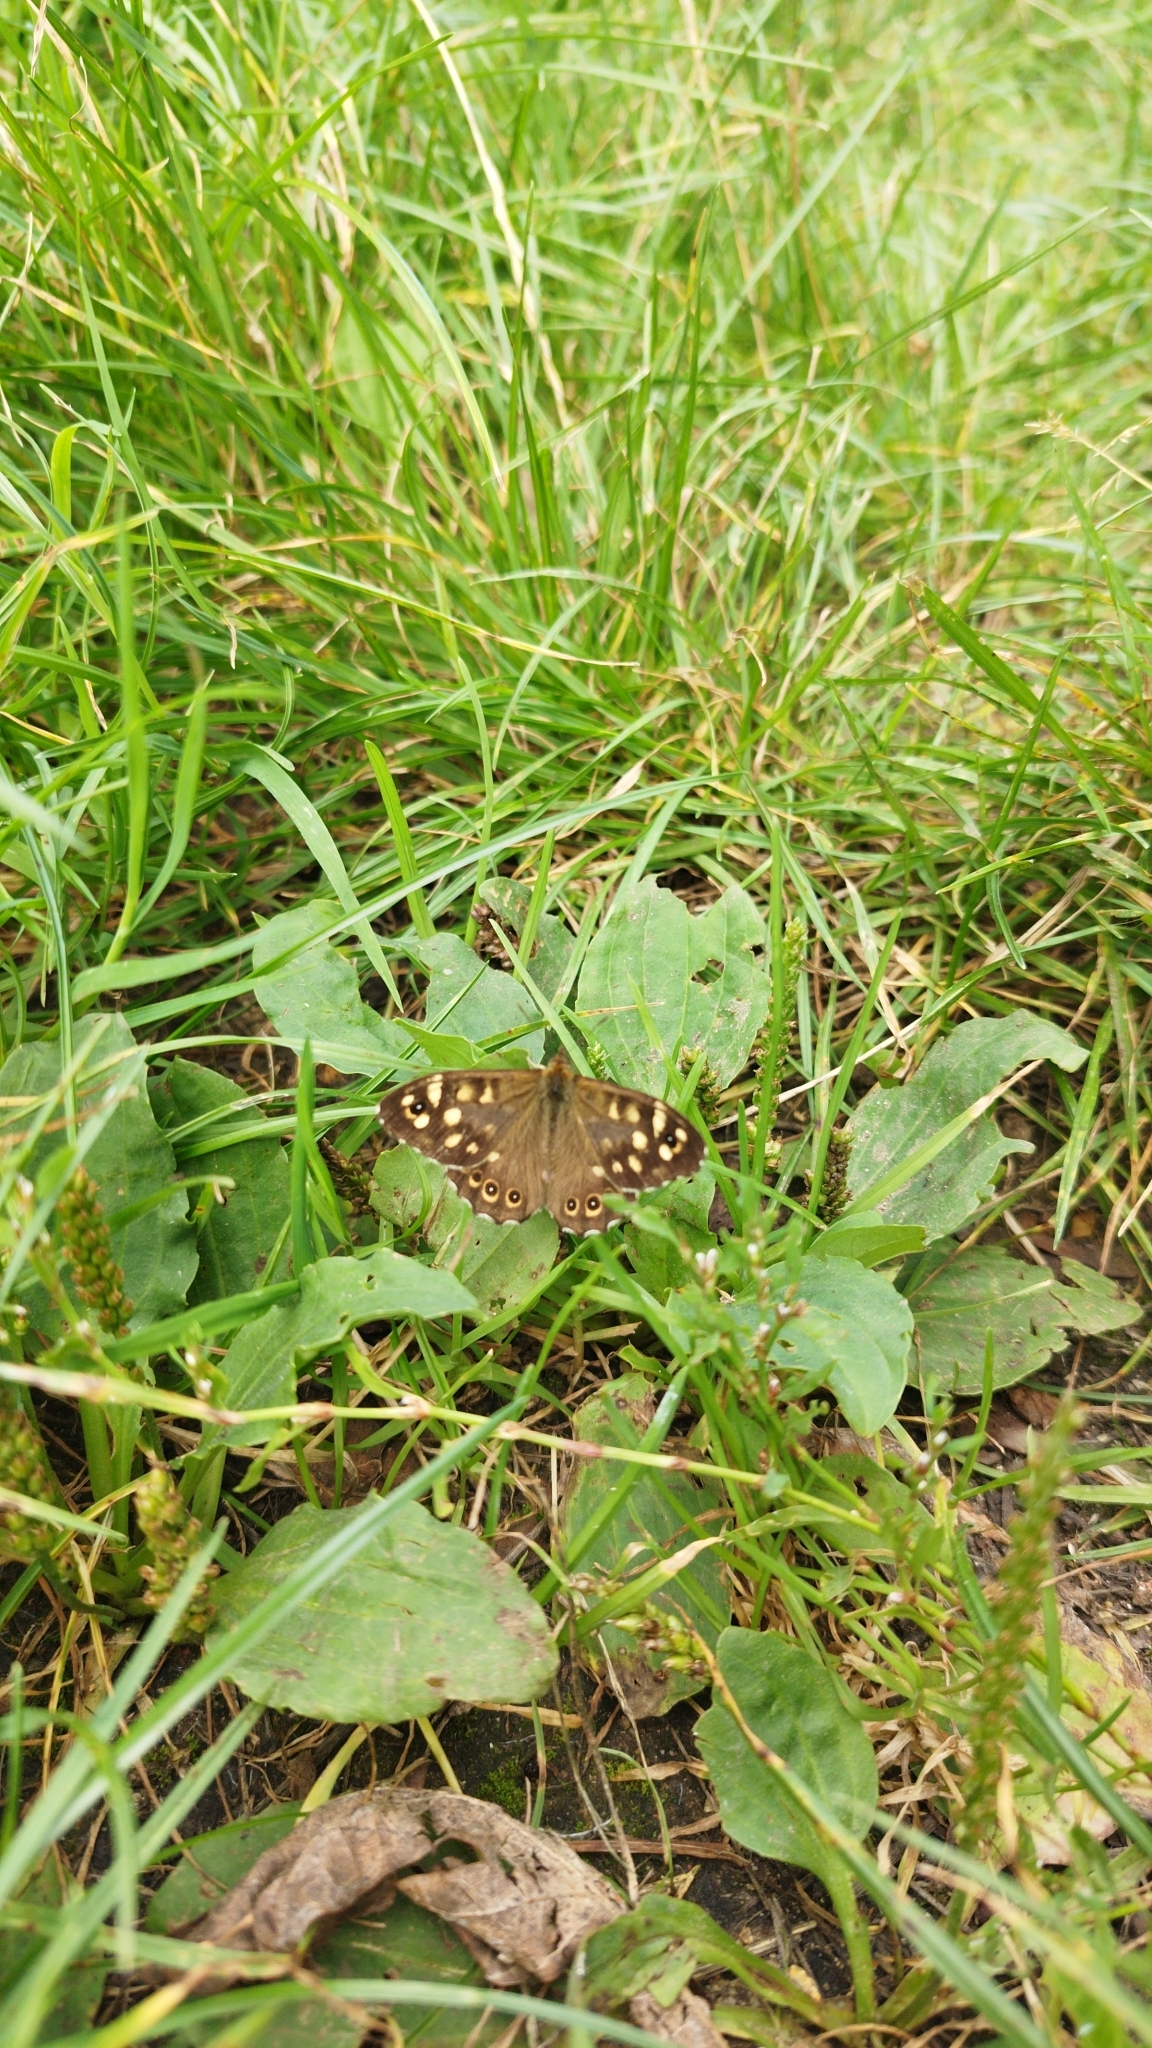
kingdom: Animalia
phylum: Arthropoda
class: Insecta
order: Lepidoptera
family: Nymphalidae
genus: Pararge
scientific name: Pararge aegeria
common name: Speckled wood
